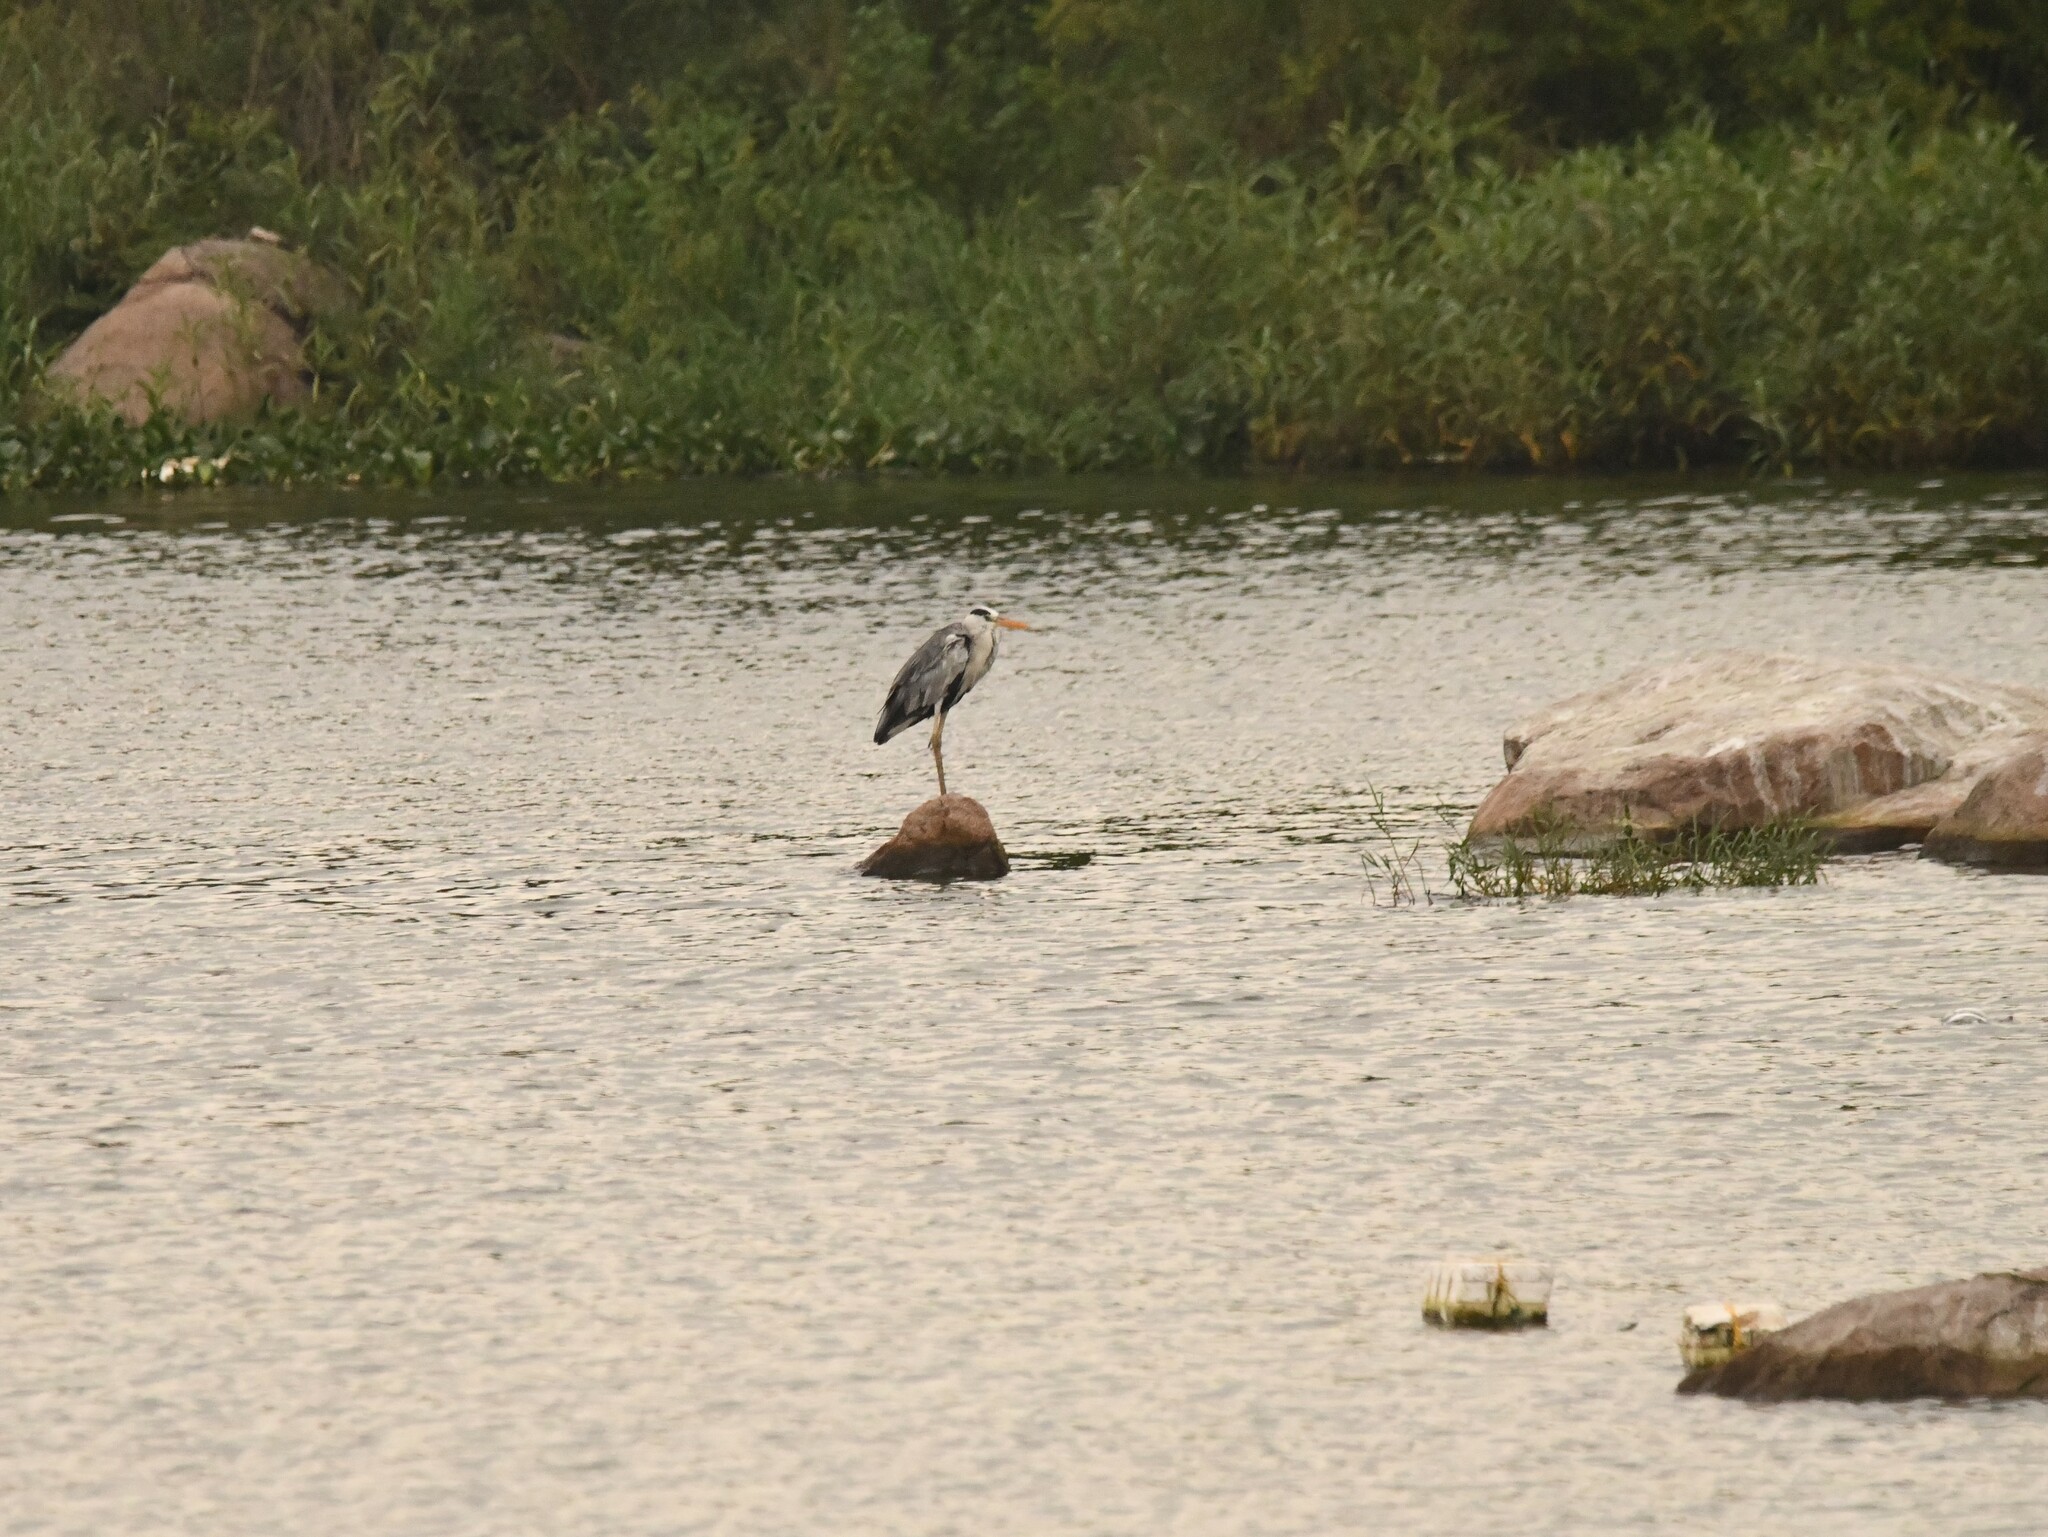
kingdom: Animalia
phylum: Chordata
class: Aves
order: Pelecaniformes
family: Ardeidae
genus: Ardea
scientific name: Ardea cinerea
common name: Grey heron
